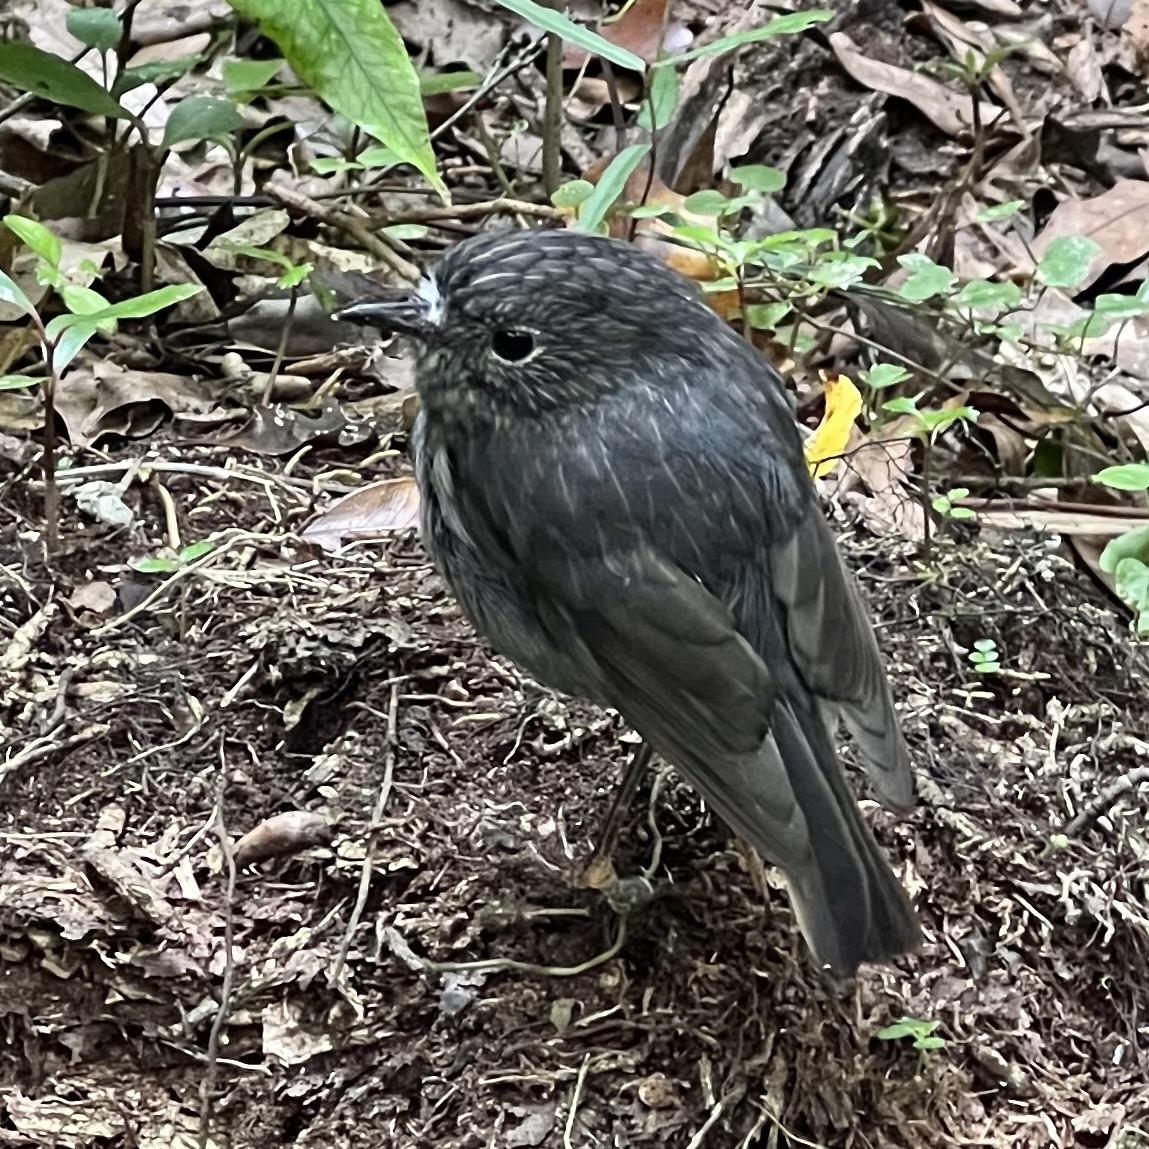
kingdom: Animalia
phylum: Chordata
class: Aves
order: Passeriformes
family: Petroicidae
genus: Petroica
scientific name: Petroica australis
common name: New zealand robin
